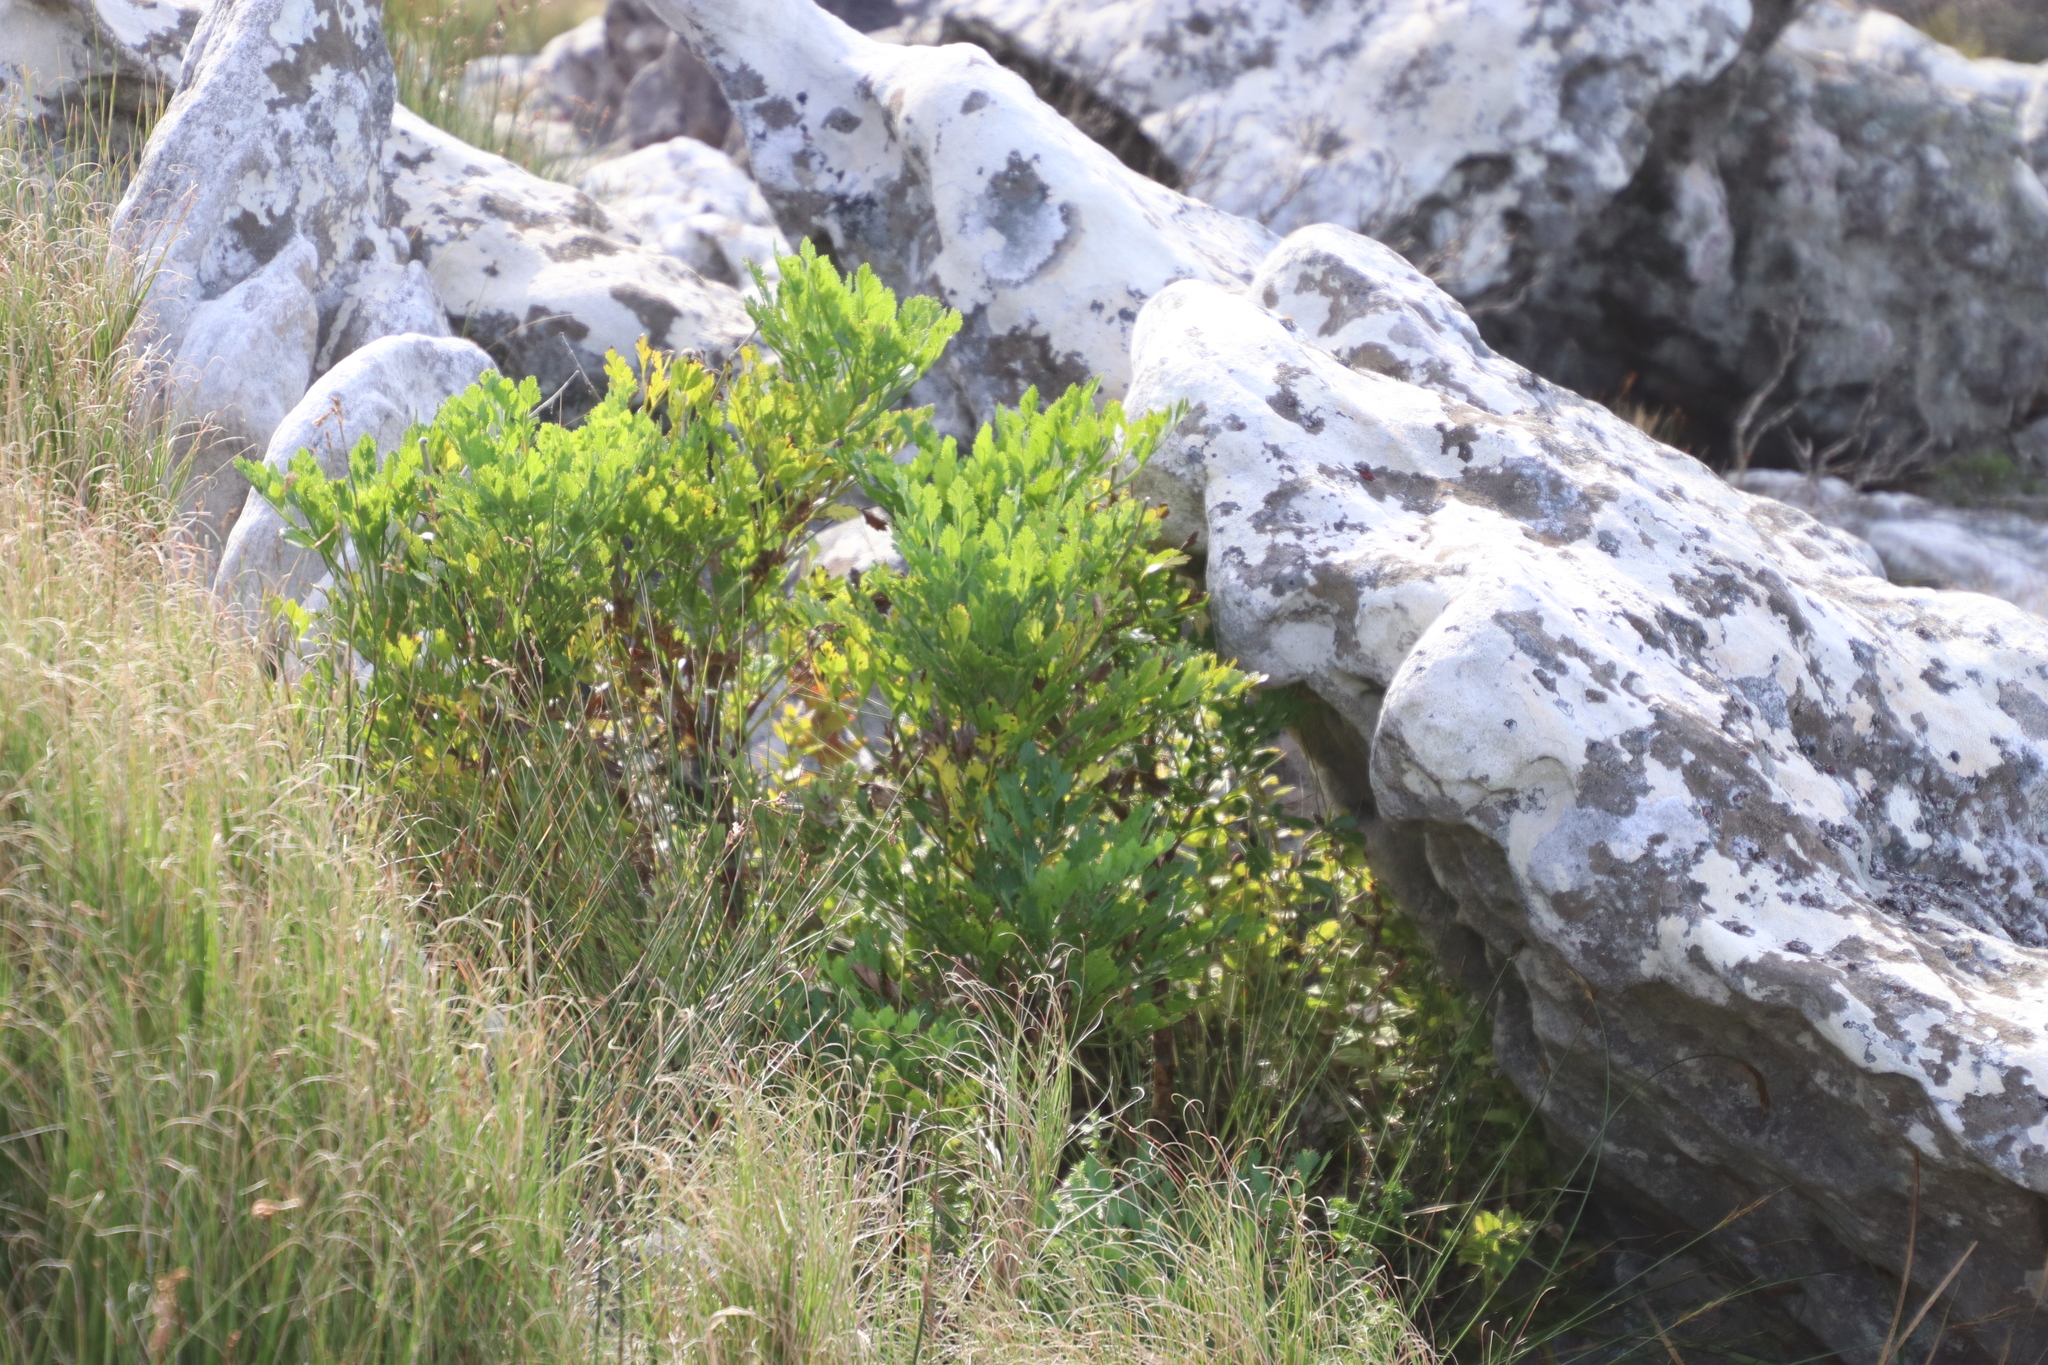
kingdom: Plantae
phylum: Tracheophyta
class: Magnoliopsida
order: Apiales
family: Apiaceae
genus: Notobubon
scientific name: Notobubon galbanum
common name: Blisterbush
